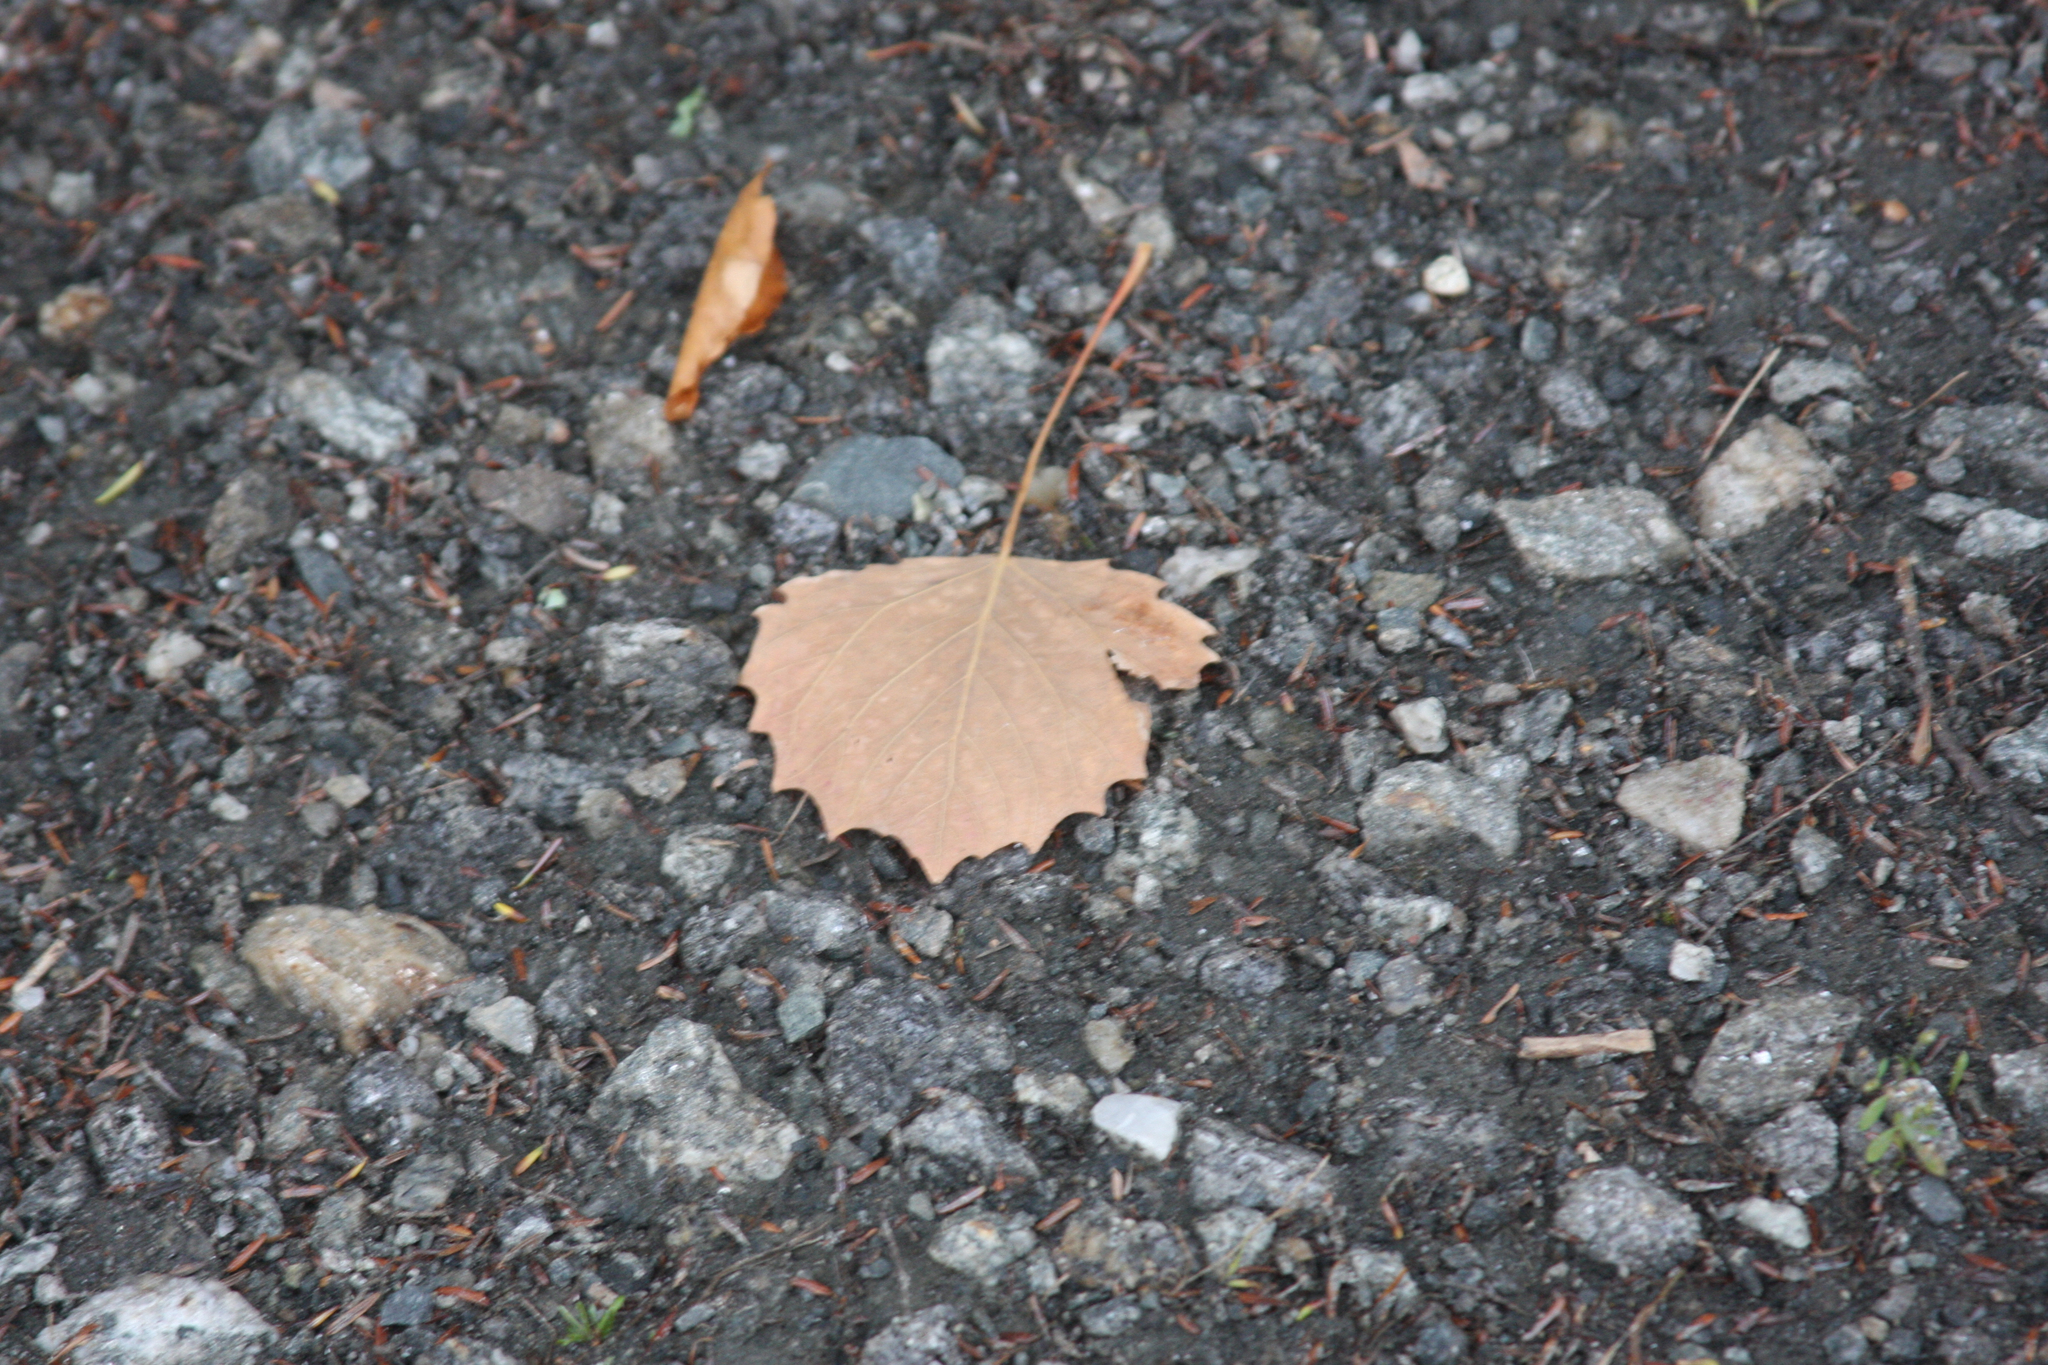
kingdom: Plantae
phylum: Tracheophyta
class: Magnoliopsida
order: Malpighiales
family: Salicaceae
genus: Populus
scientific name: Populus grandidentata
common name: Bigtooth aspen
